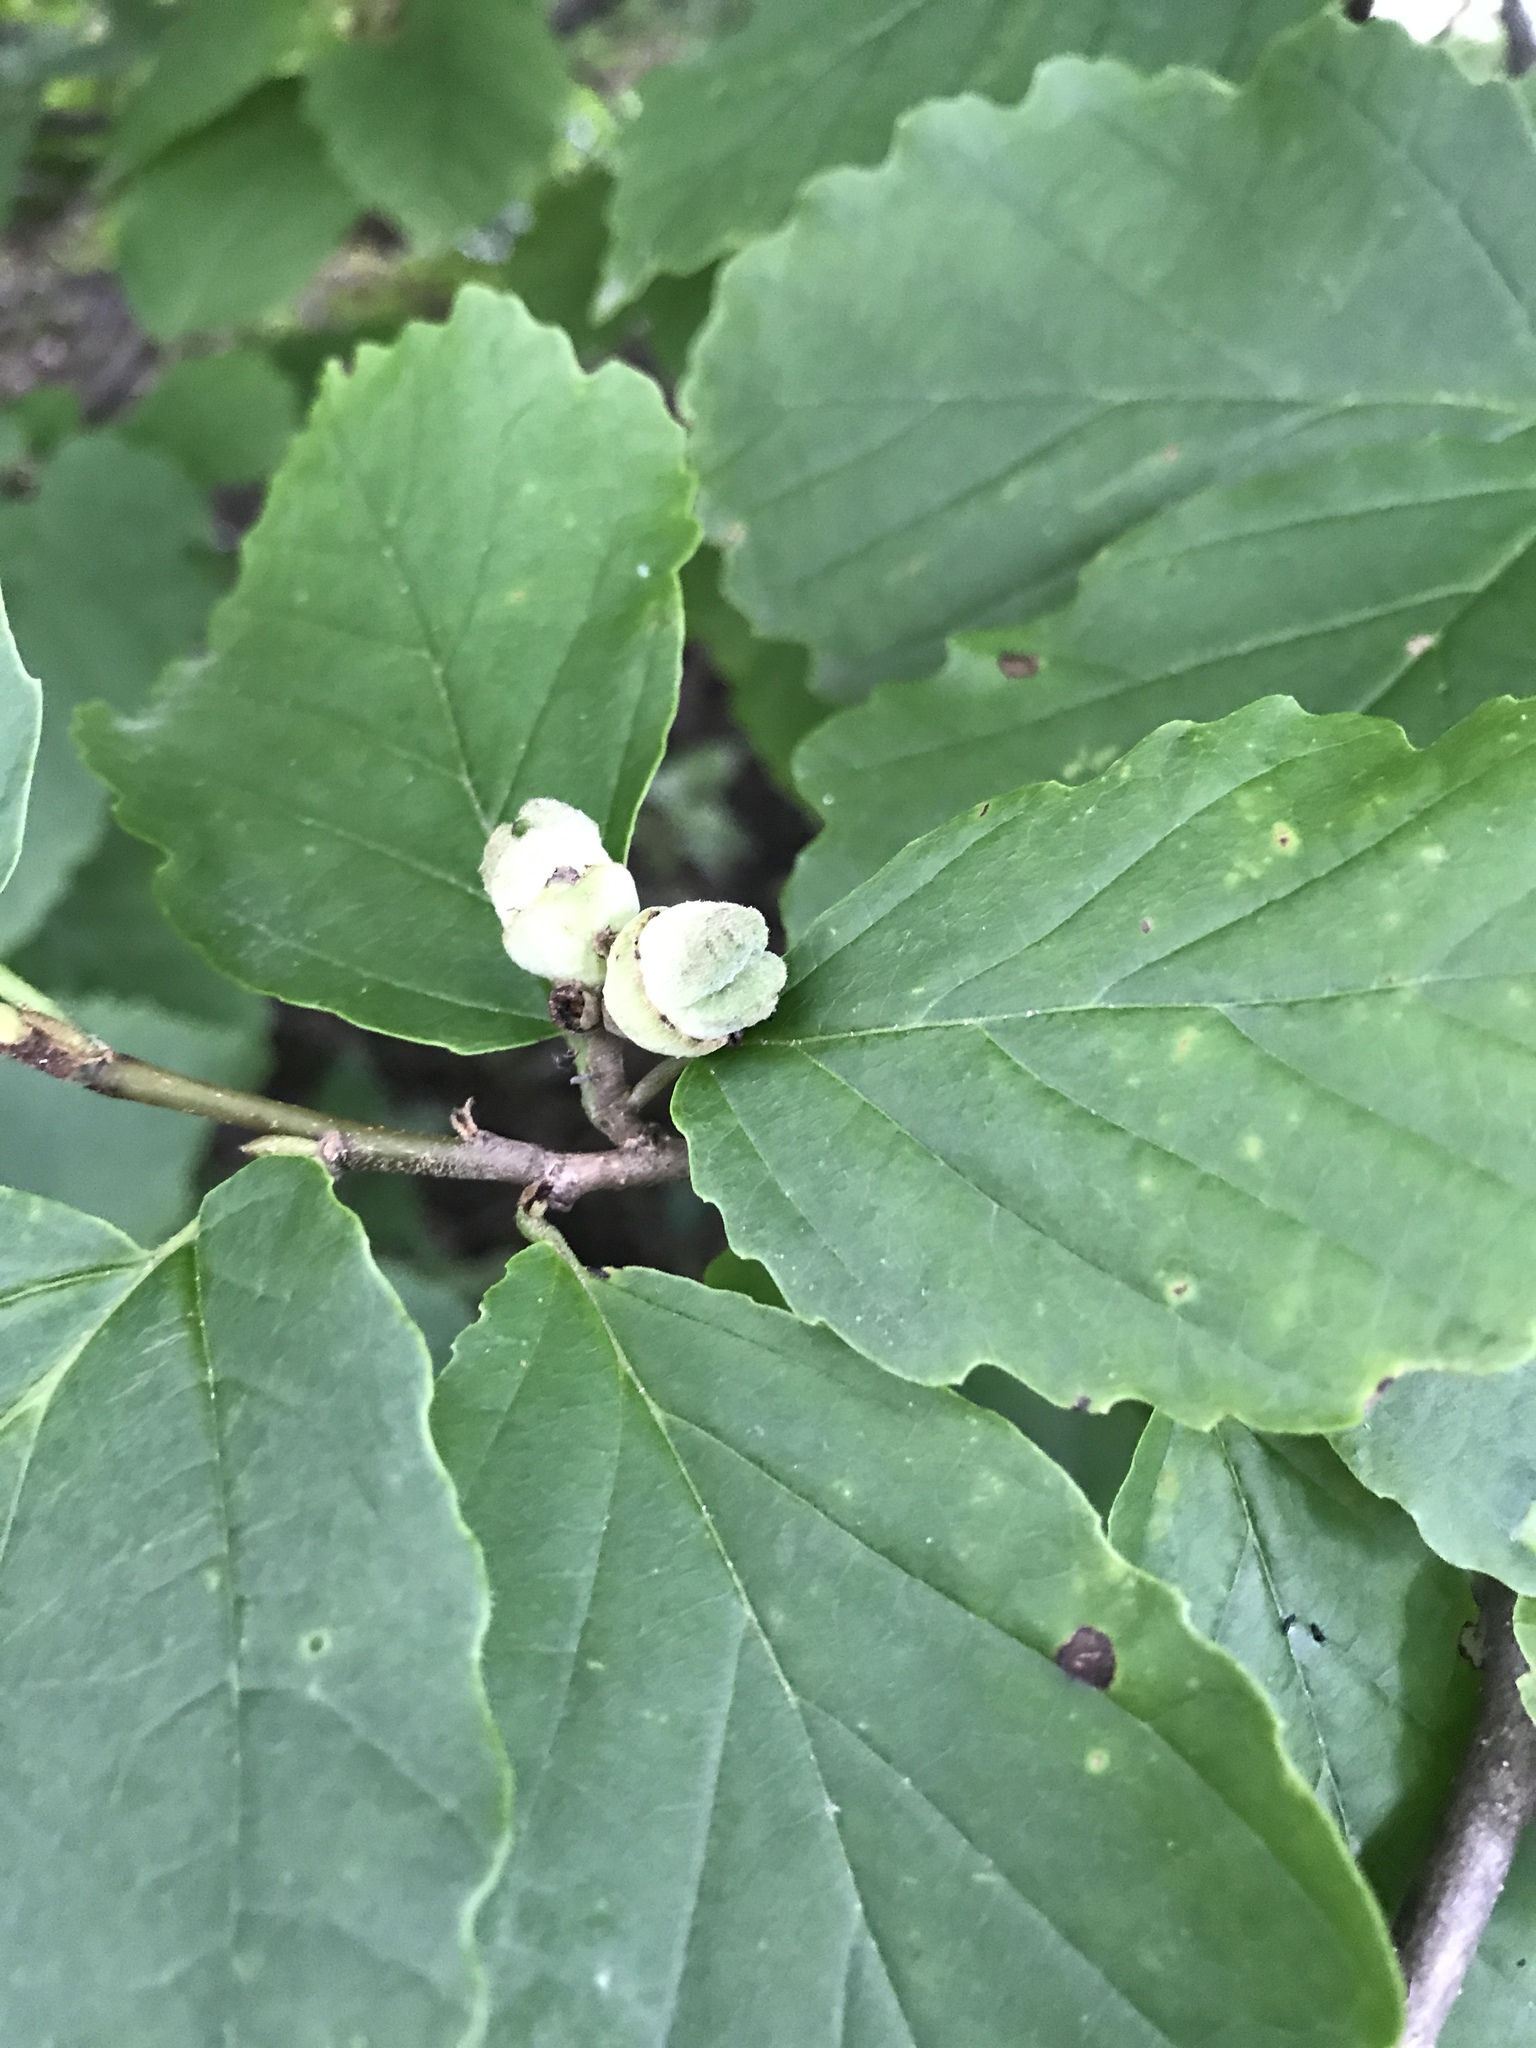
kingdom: Plantae
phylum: Tracheophyta
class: Magnoliopsida
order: Saxifragales
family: Hamamelidaceae
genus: Hamamelis
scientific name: Hamamelis virginiana
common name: Witch-hazel
